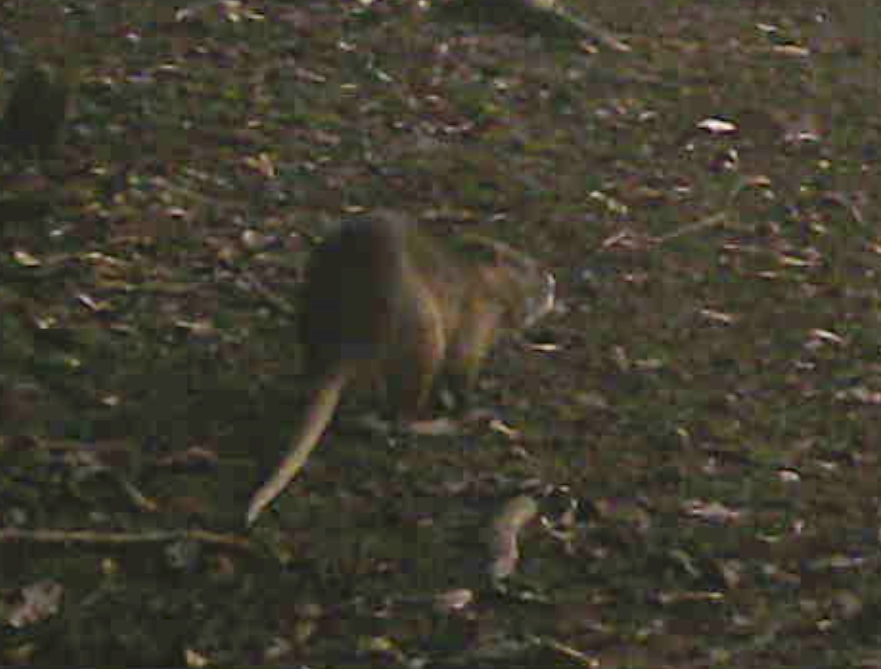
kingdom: Animalia
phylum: Chordata
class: Mammalia
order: Rodentia
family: Myocastoridae
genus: Myocastor
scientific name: Myocastor coypus
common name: Coypu
